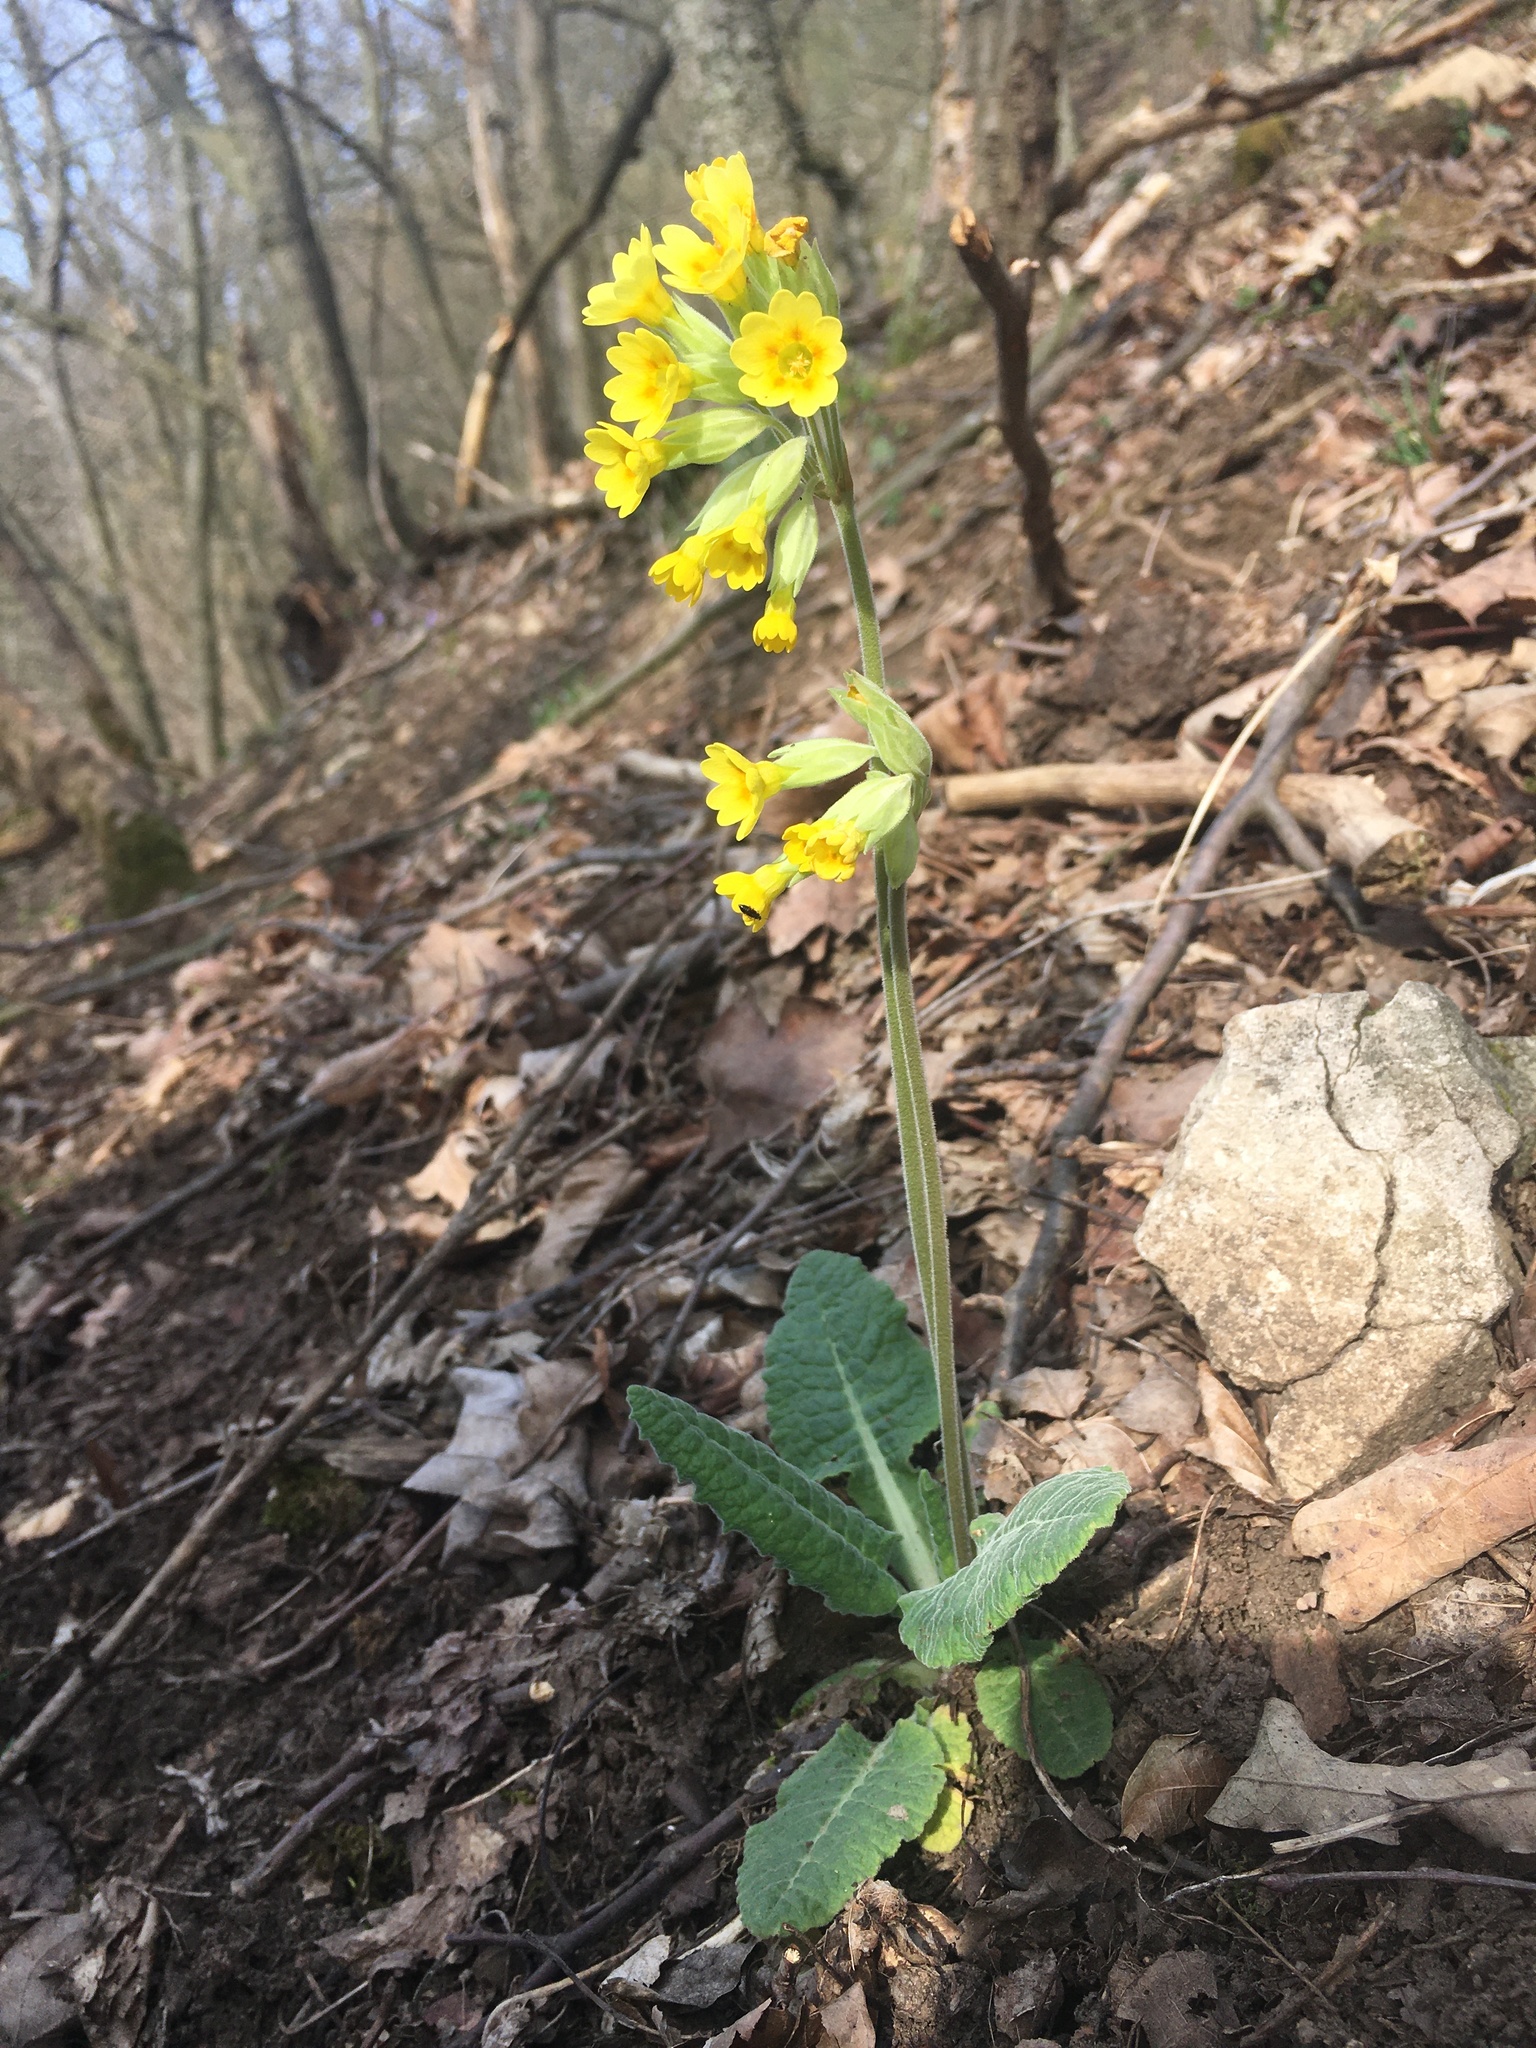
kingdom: Plantae
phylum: Tracheophyta
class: Magnoliopsida
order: Ericales
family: Primulaceae
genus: Primula
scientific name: Primula veris
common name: Cowslip
